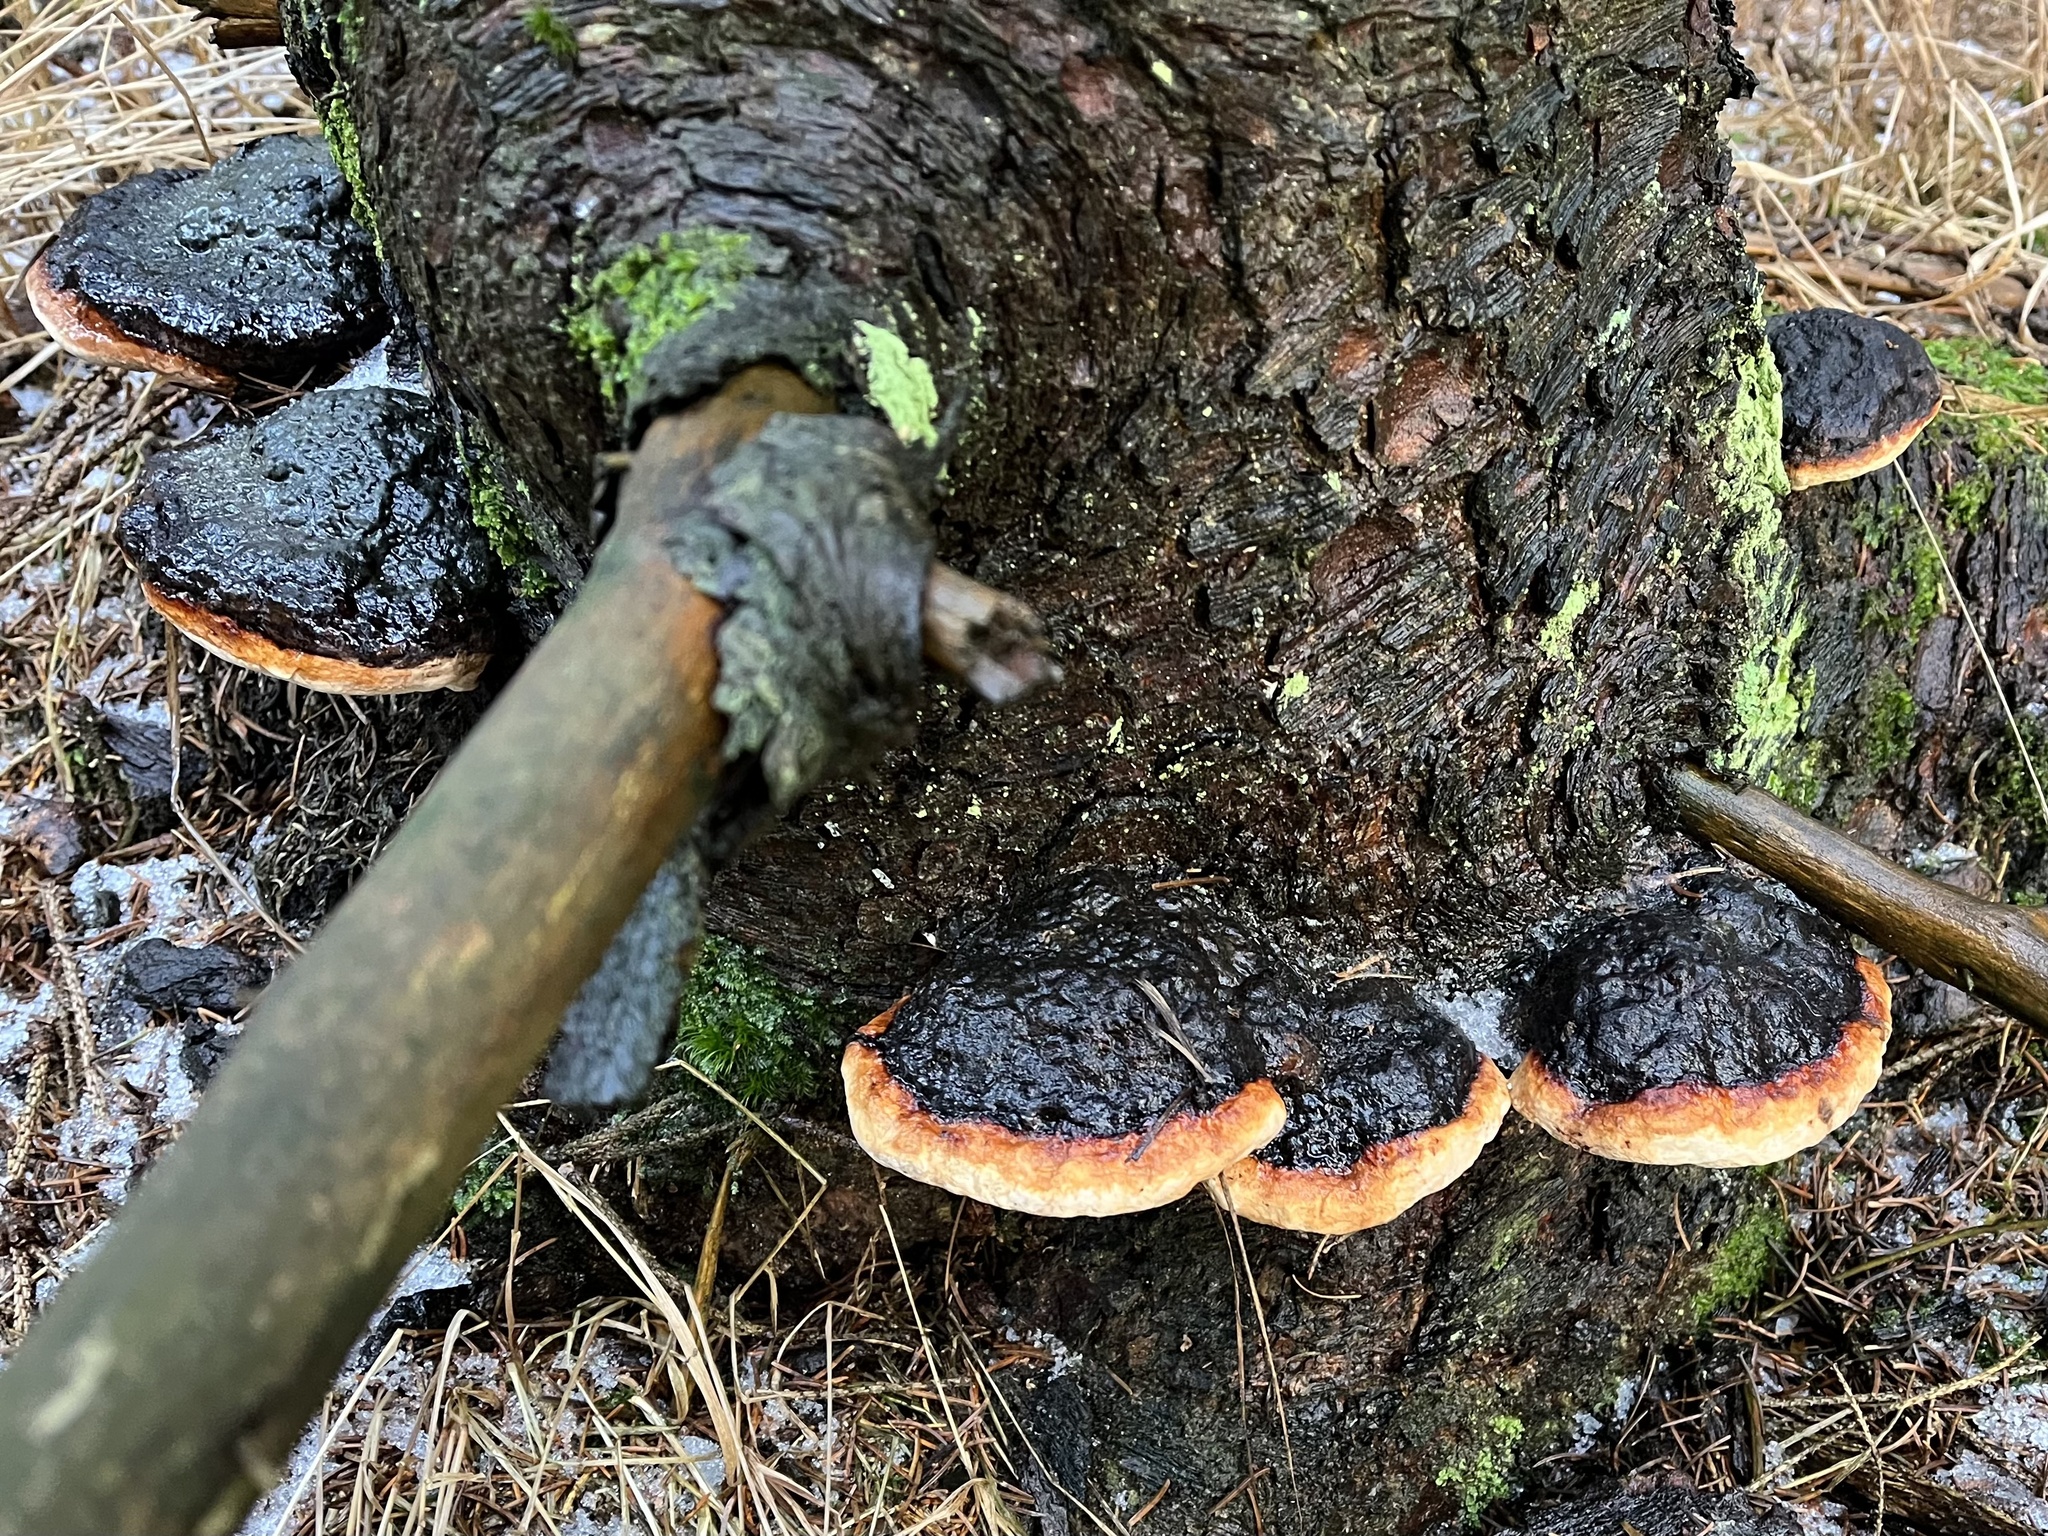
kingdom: Fungi
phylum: Basidiomycota
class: Agaricomycetes
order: Polyporales
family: Fomitopsidaceae
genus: Fomitopsis
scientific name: Fomitopsis pinicola
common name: Red-belted bracket
